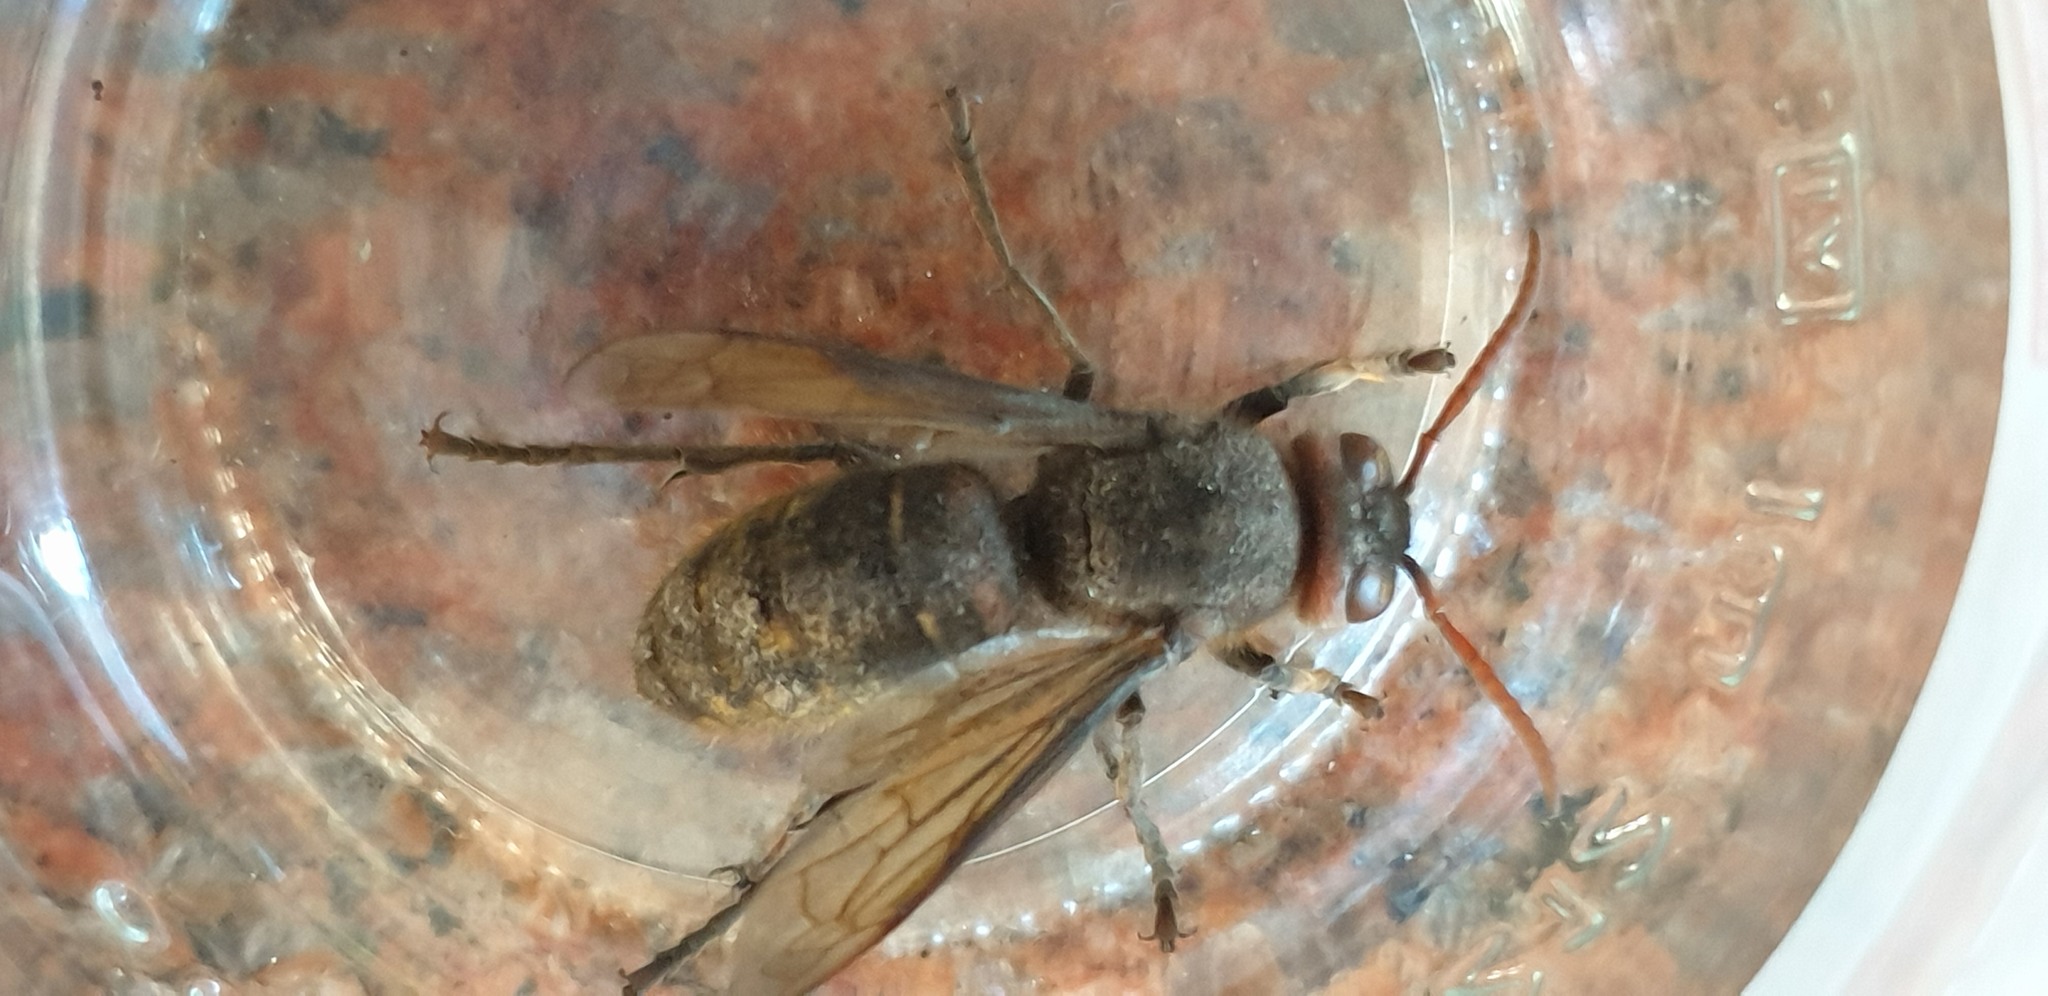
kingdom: Animalia
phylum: Arthropoda
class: Insecta
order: Hymenoptera
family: Vespidae
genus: Vespa
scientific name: Vespa crabro
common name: Hornet
